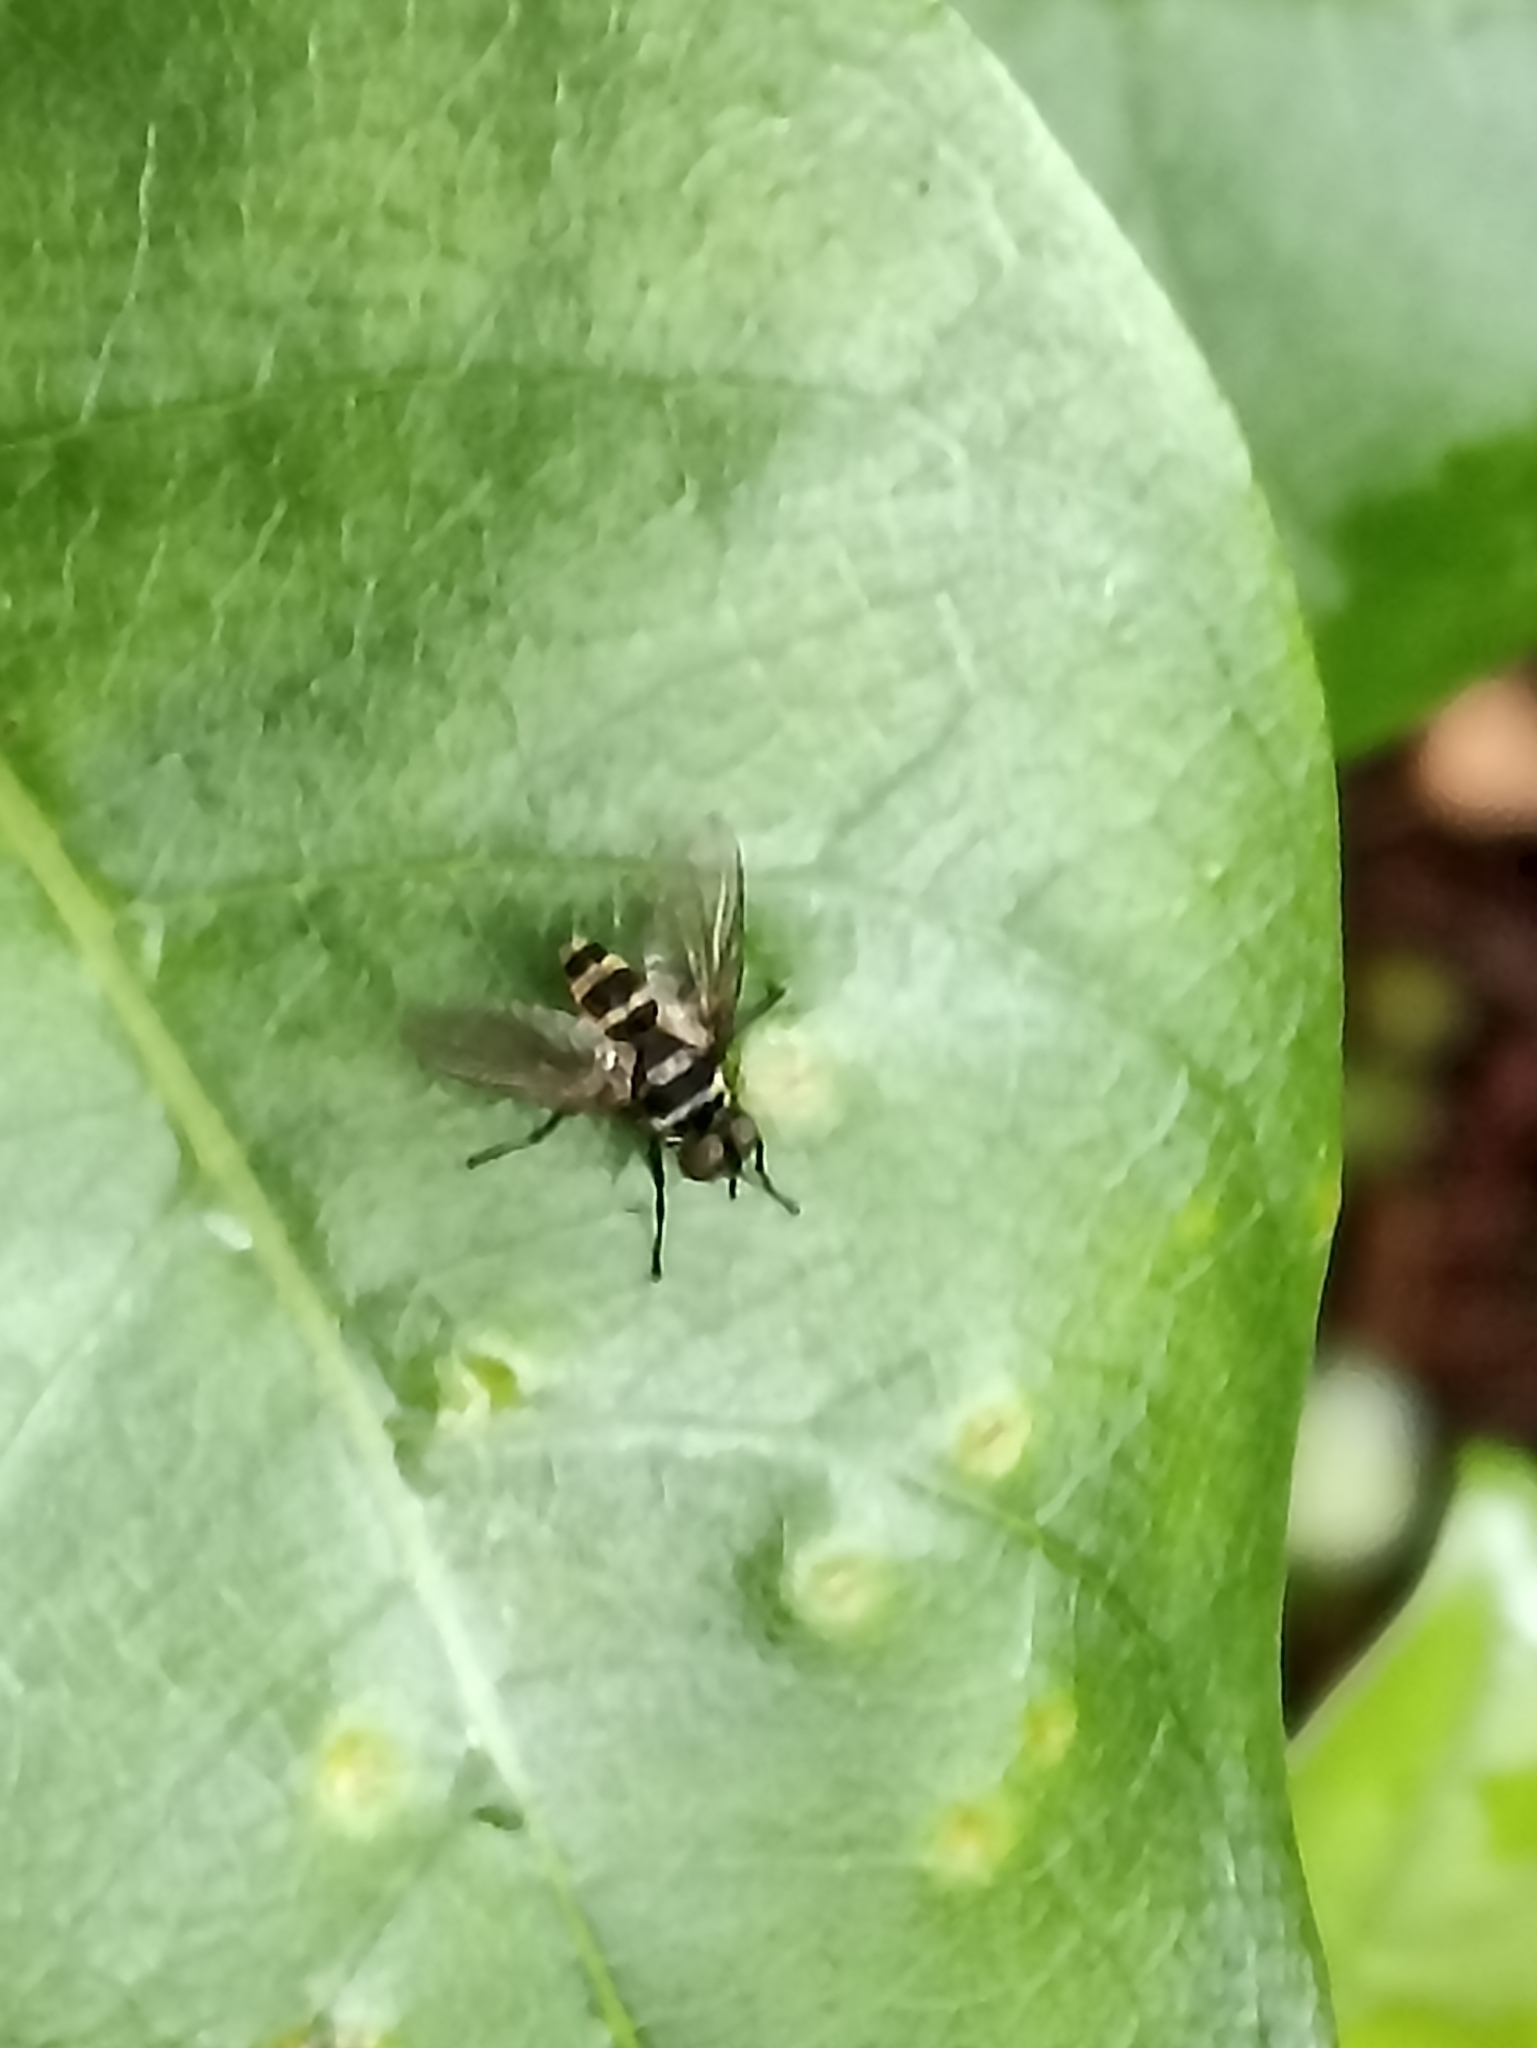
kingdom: Animalia
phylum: Arthropoda
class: Insecta
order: Diptera
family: Tachinidae
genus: Trigonospila
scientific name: Trigonospila brevifacies
